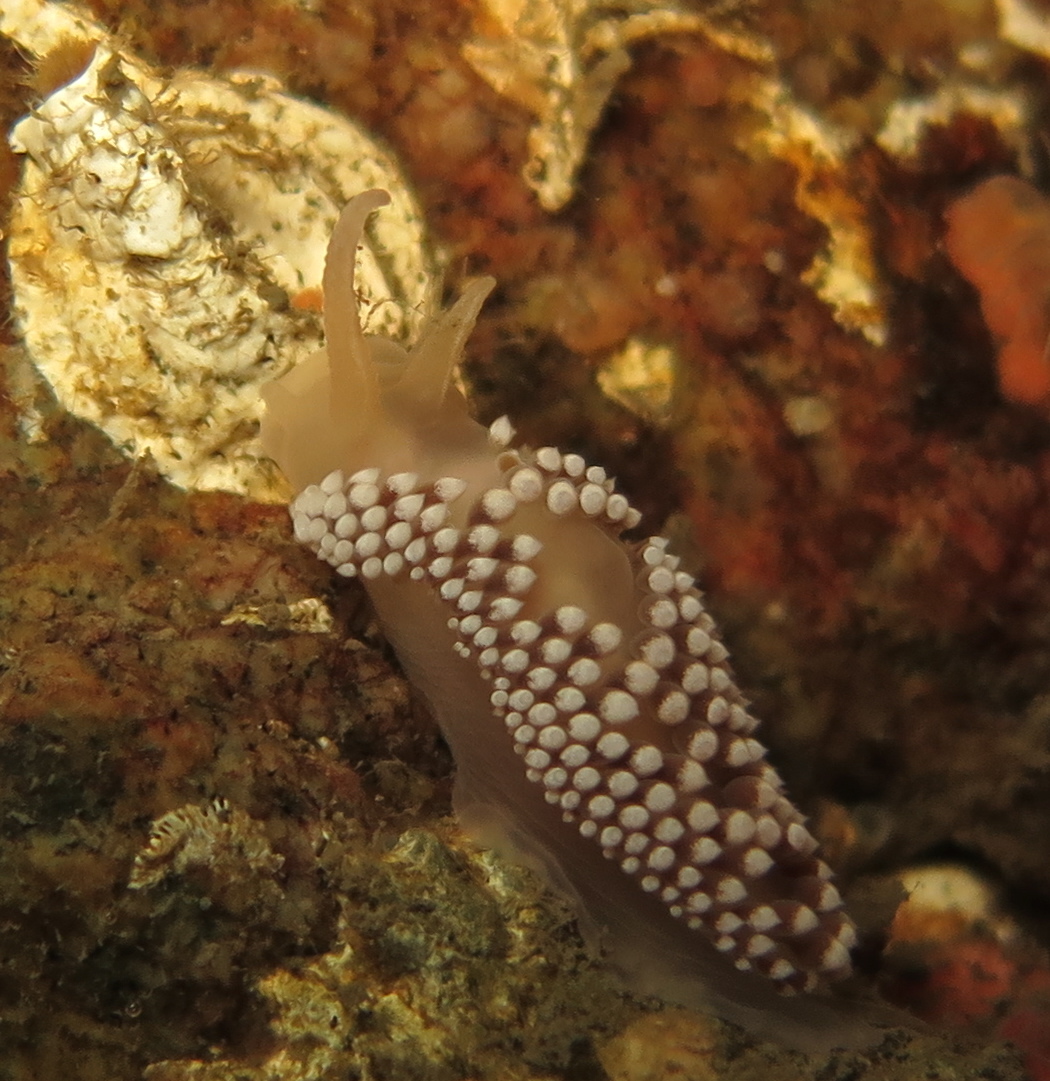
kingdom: Animalia
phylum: Mollusca
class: Gastropoda
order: Nudibranchia
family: Coryphellidae
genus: Coryphella
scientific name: Coryphella verrucosa
